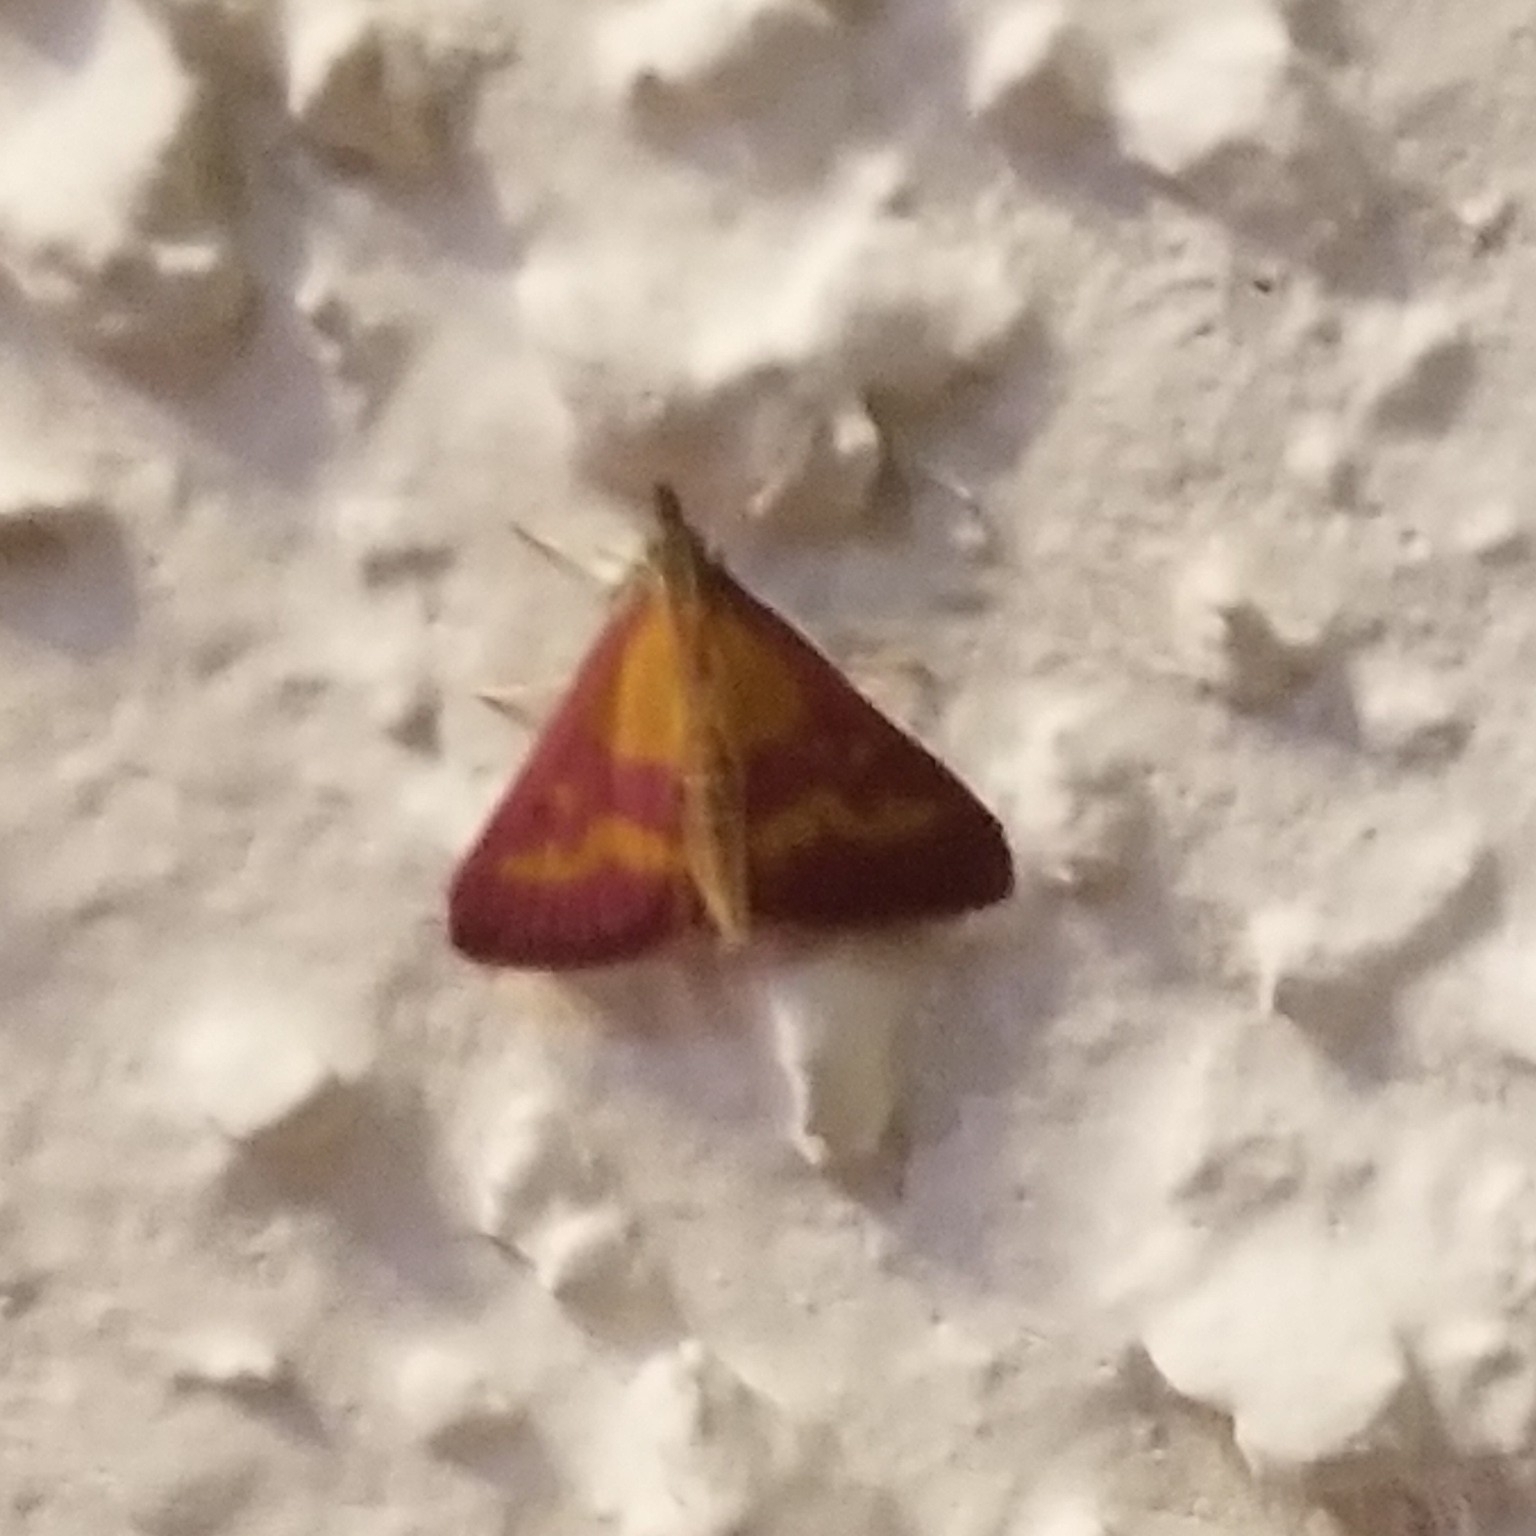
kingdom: Animalia
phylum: Arthropoda
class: Insecta
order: Lepidoptera
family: Crambidae
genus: Pyrausta
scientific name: Pyrausta laticlavia
